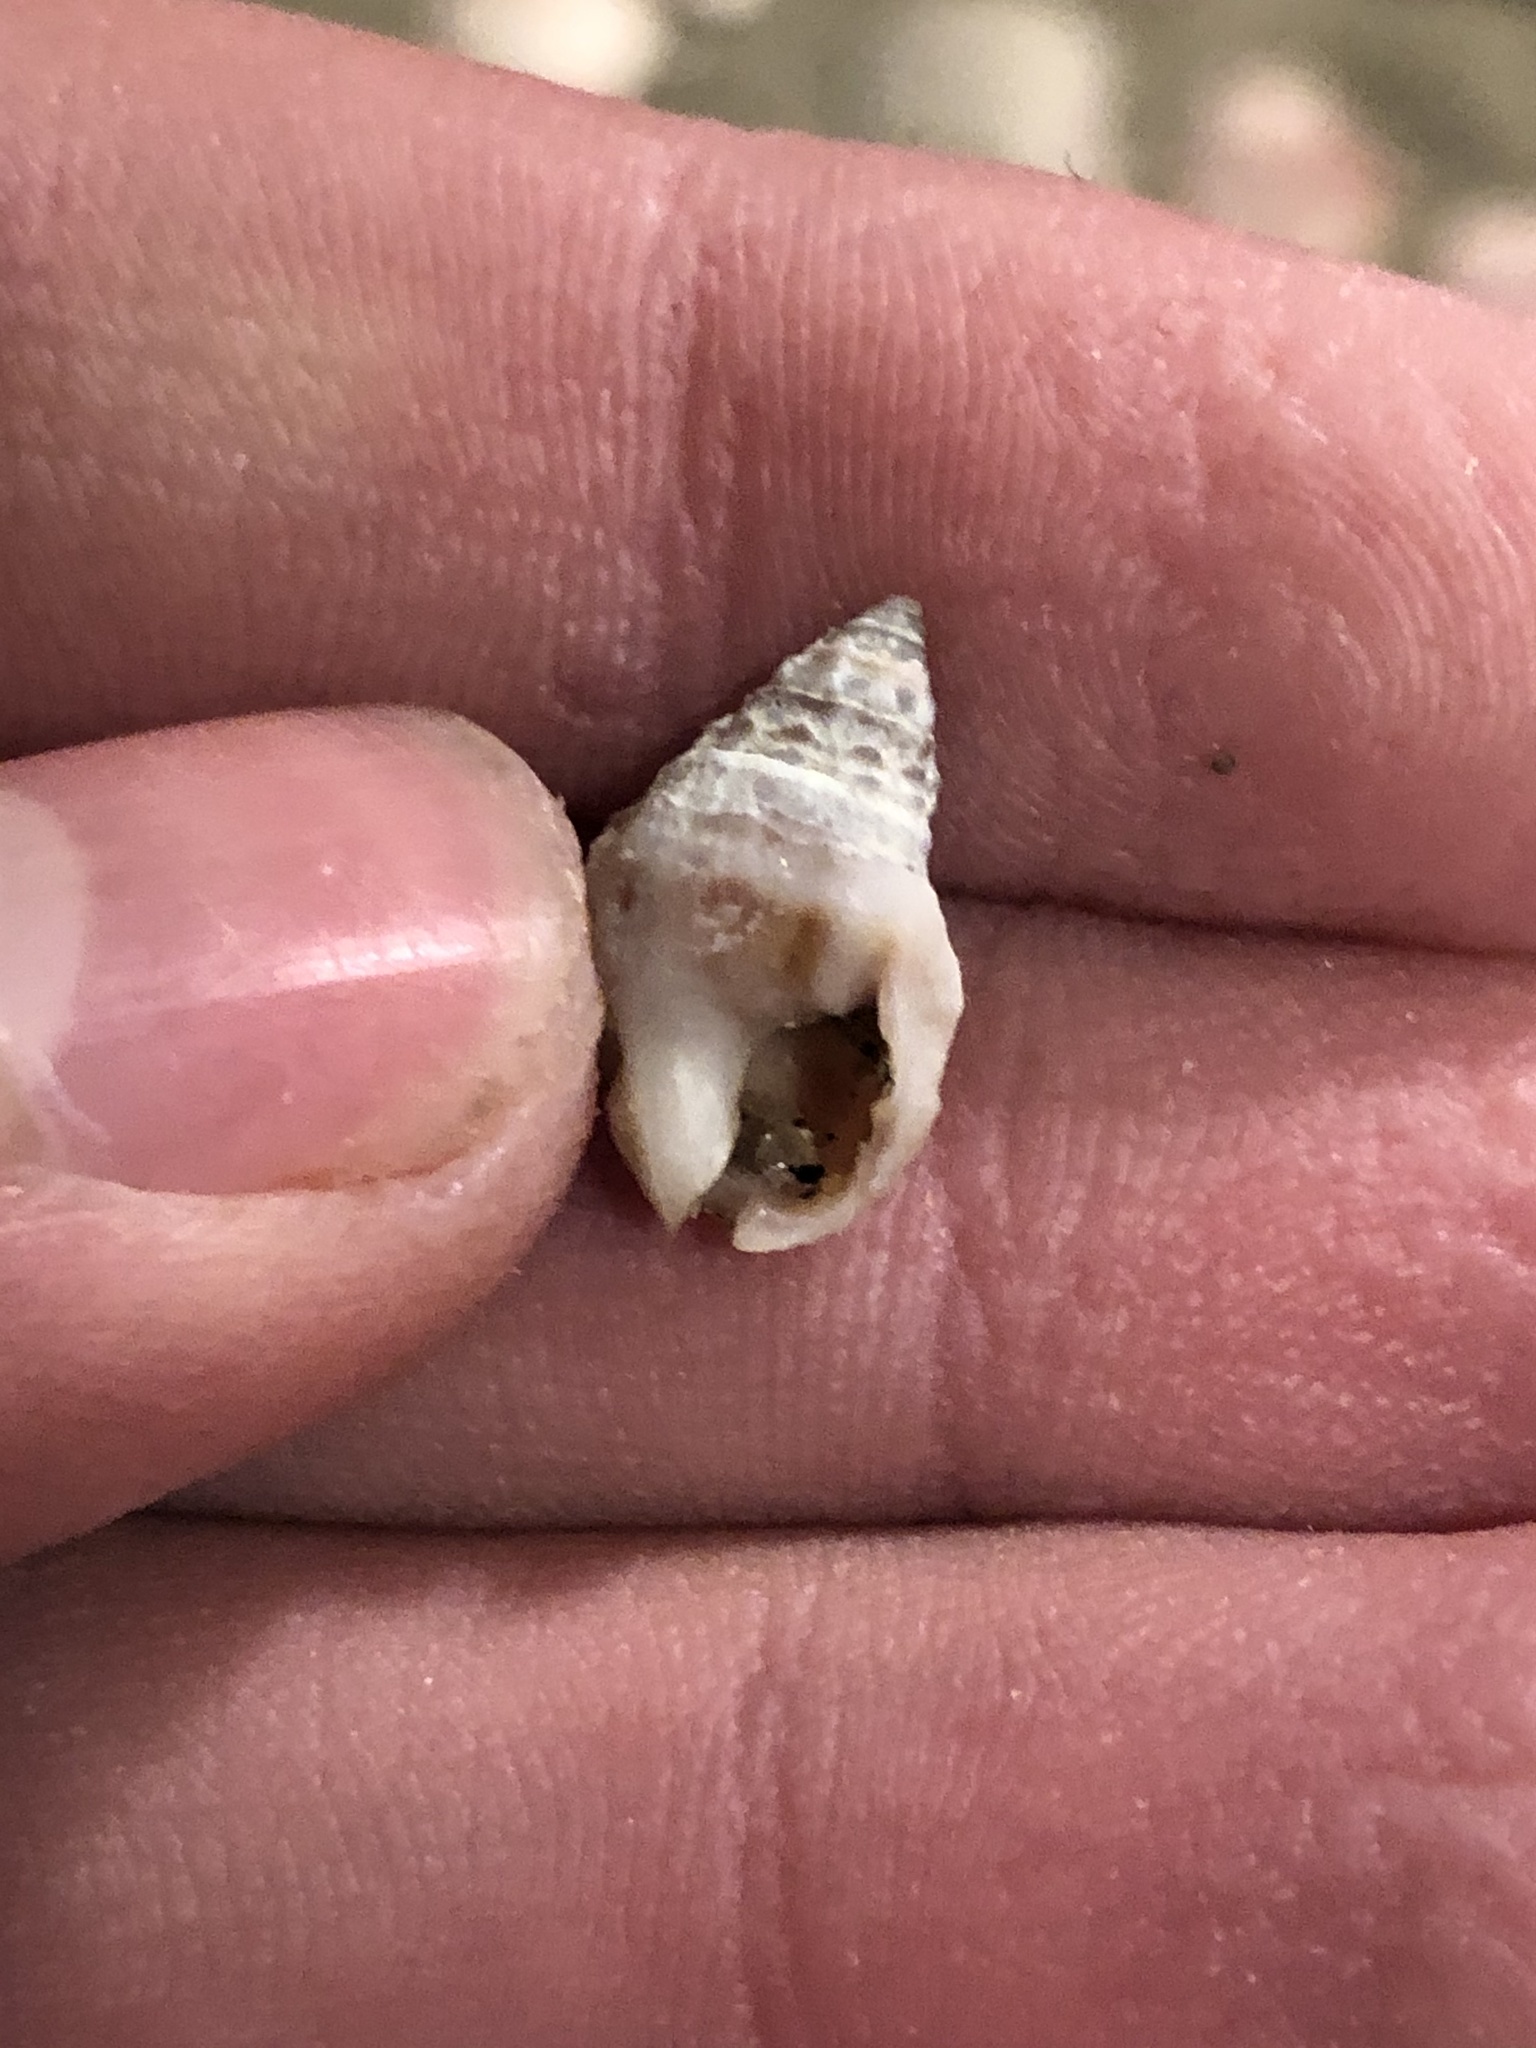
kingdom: Animalia
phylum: Mollusca
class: Gastropoda
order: Neogastropoda
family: Nassariidae
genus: Phrontis
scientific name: Phrontis tiarula
